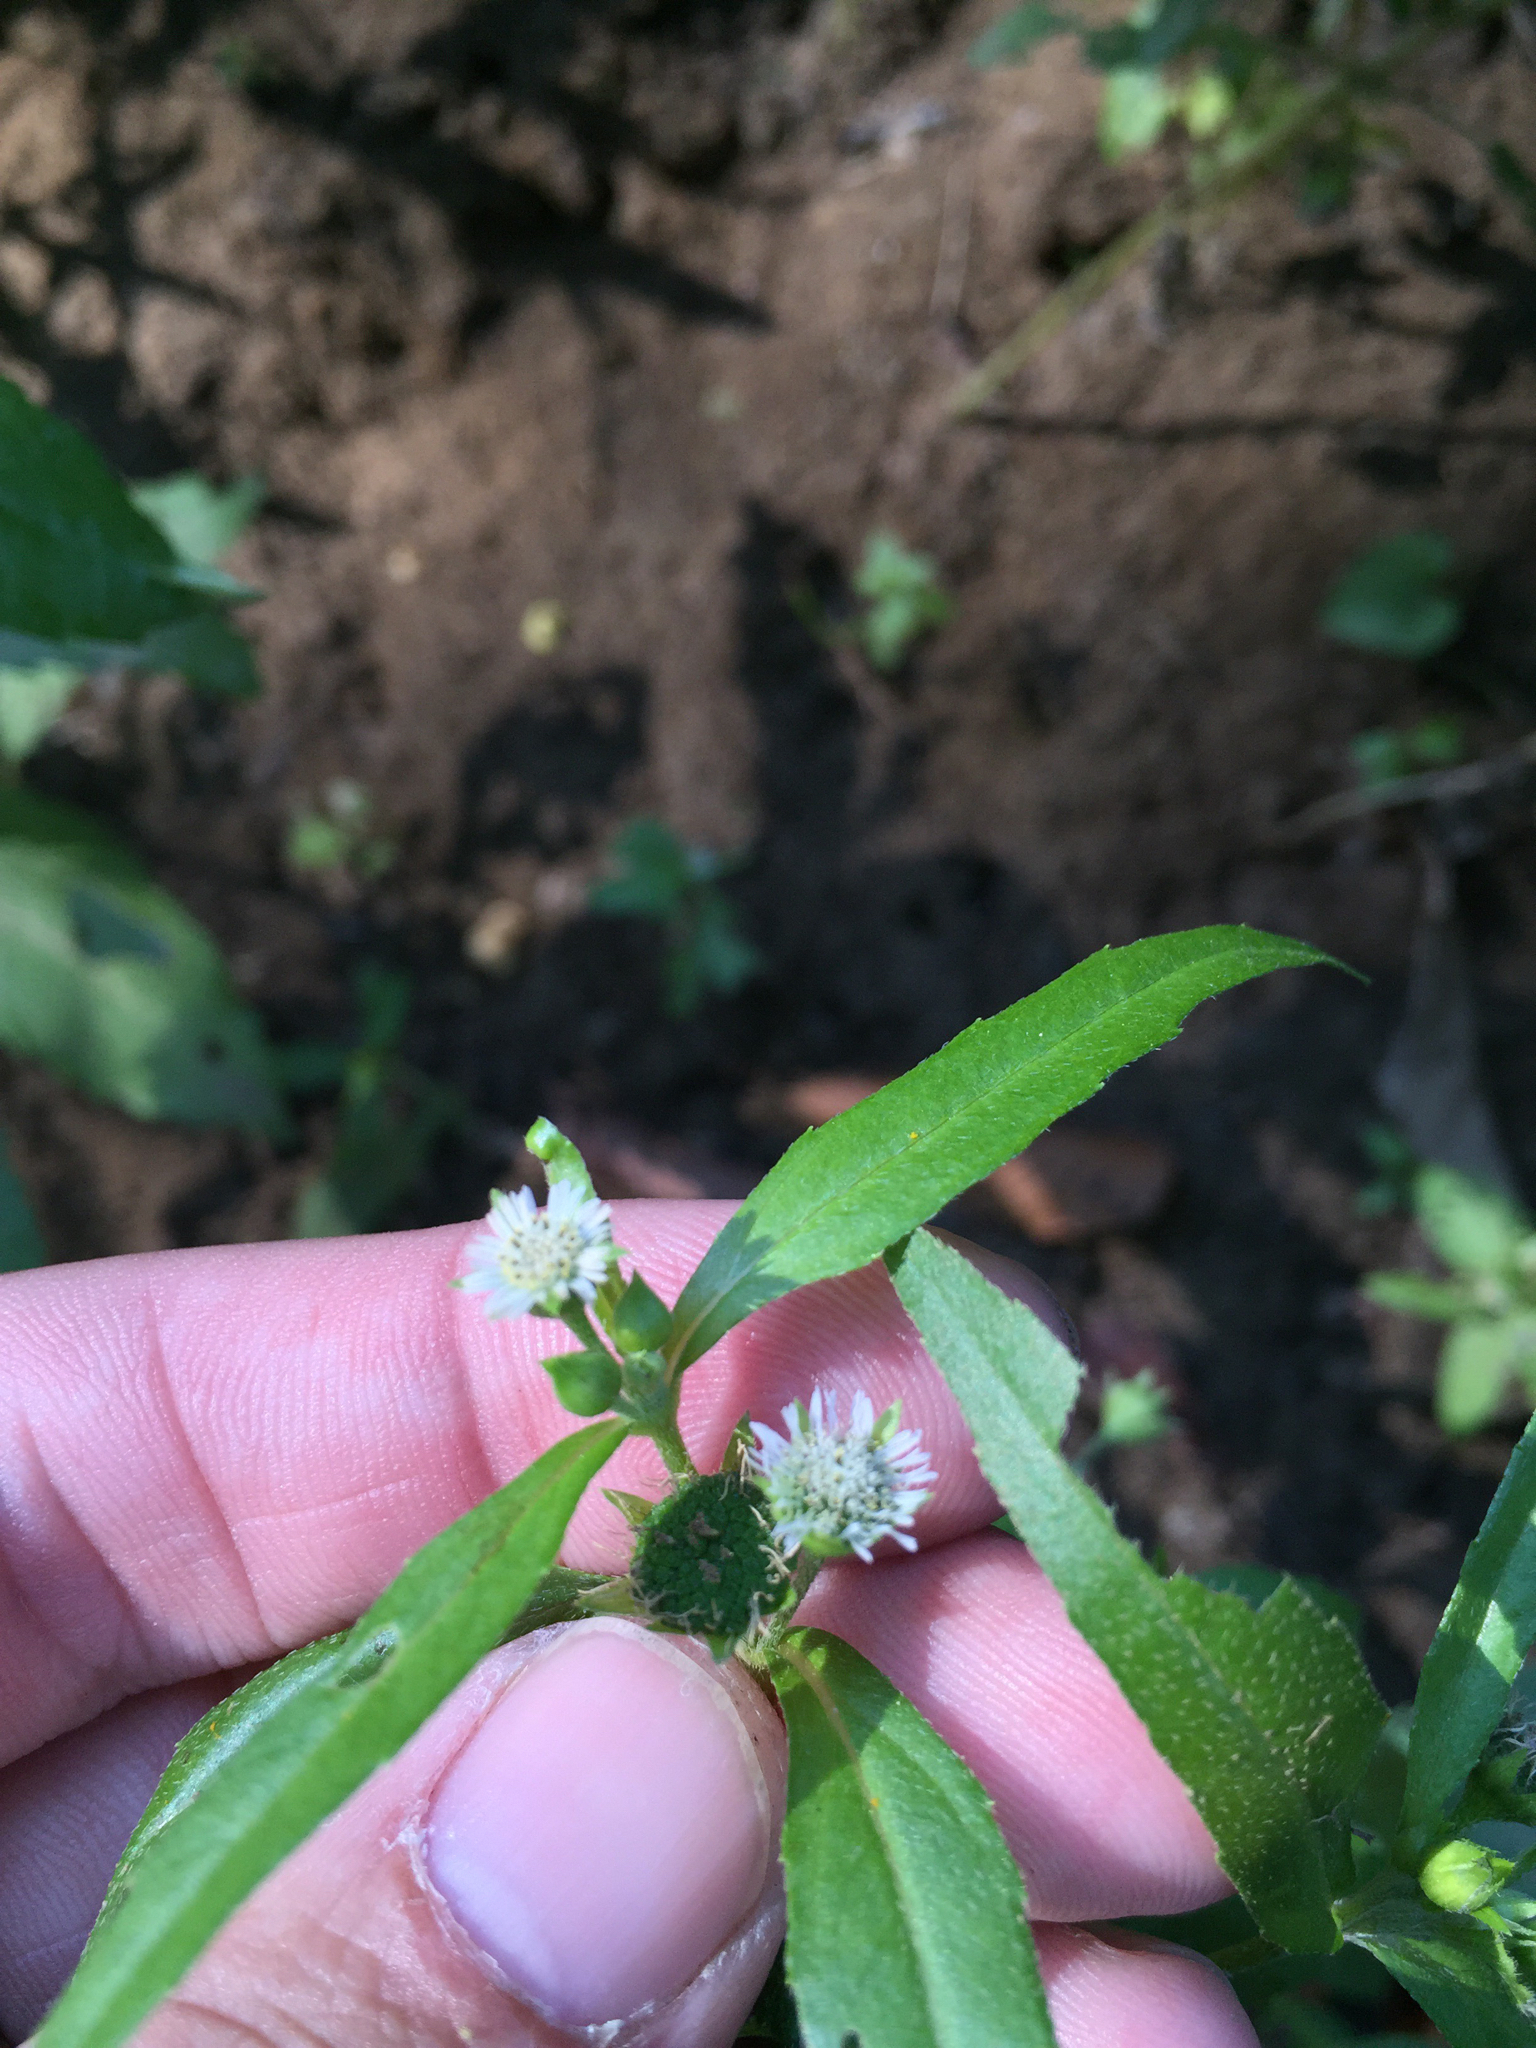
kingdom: Plantae
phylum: Tracheophyta
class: Magnoliopsida
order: Asterales
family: Asteraceae
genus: Eclipta
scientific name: Eclipta prostrata
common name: False daisy
